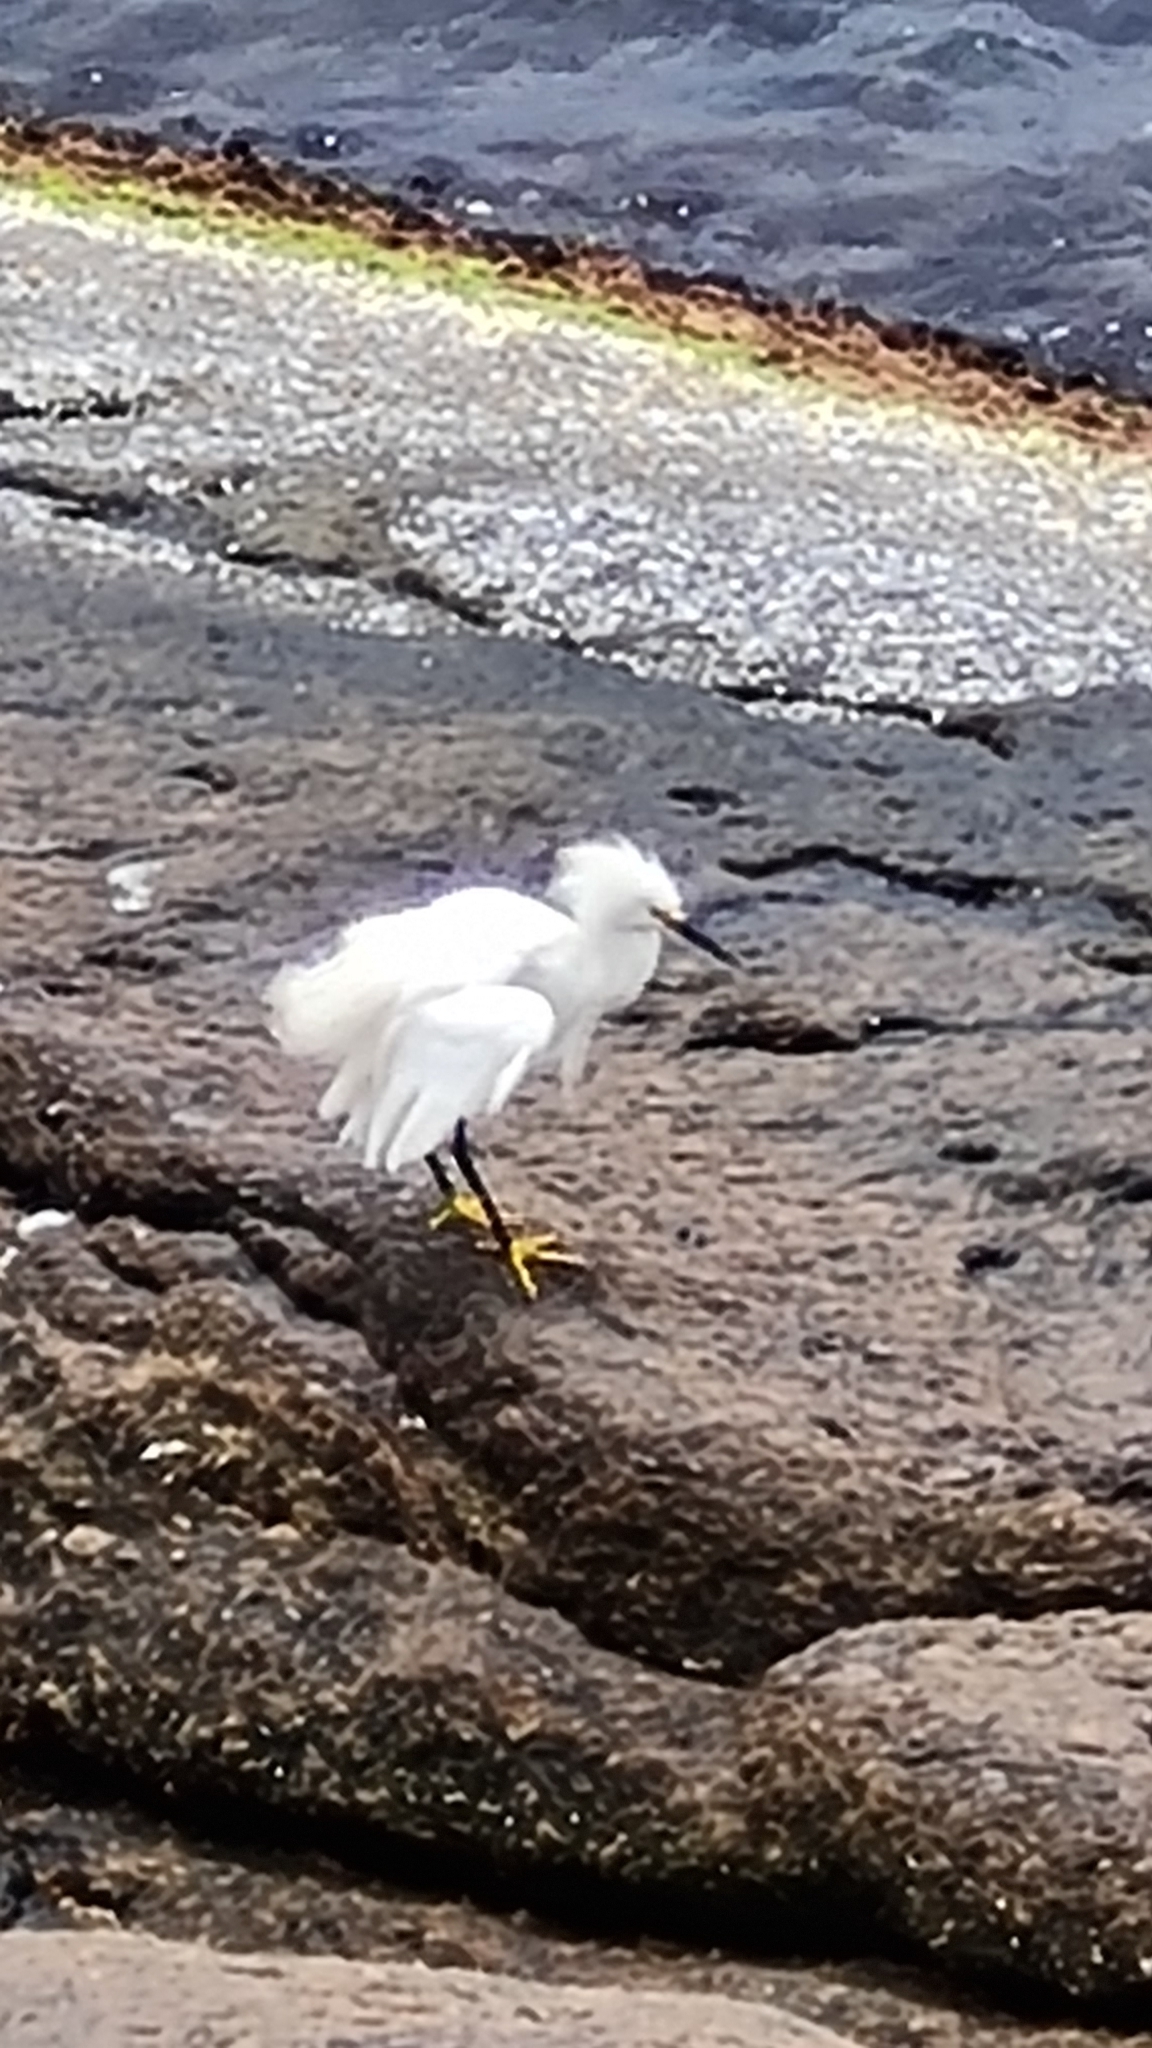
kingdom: Animalia
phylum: Chordata
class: Aves
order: Pelecaniformes
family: Ardeidae
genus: Egretta
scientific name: Egretta thula
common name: Snowy egret
